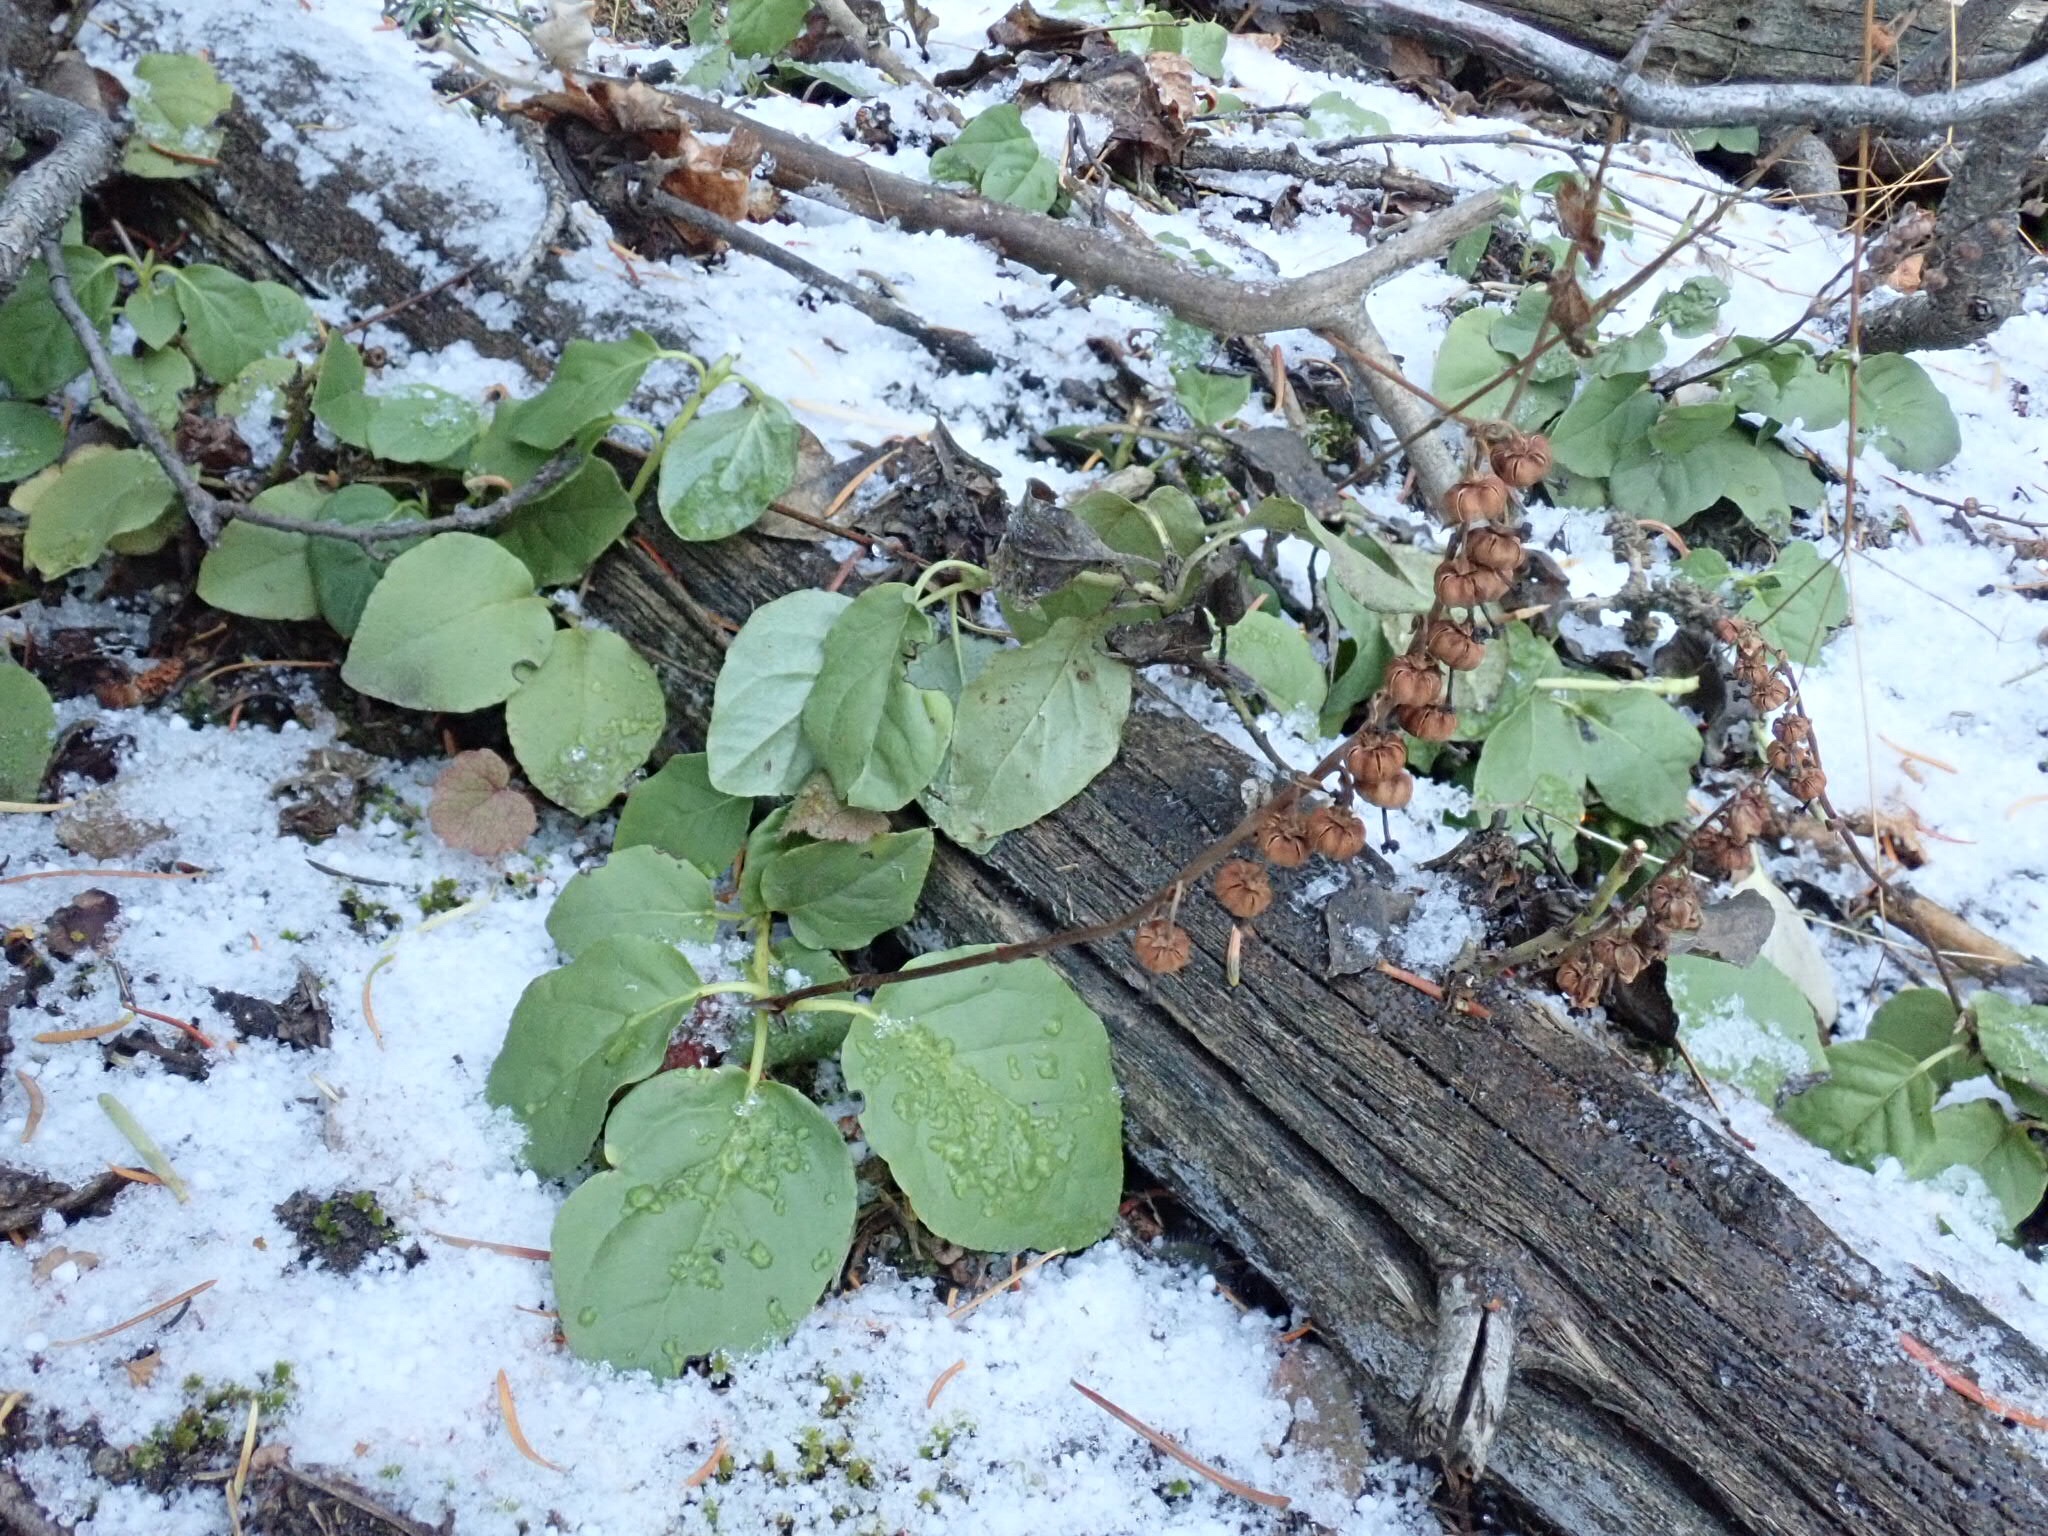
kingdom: Plantae
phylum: Tracheophyta
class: Magnoliopsida
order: Ericales
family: Ericaceae
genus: Orthilia
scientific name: Orthilia secunda
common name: One-sided orthilia
